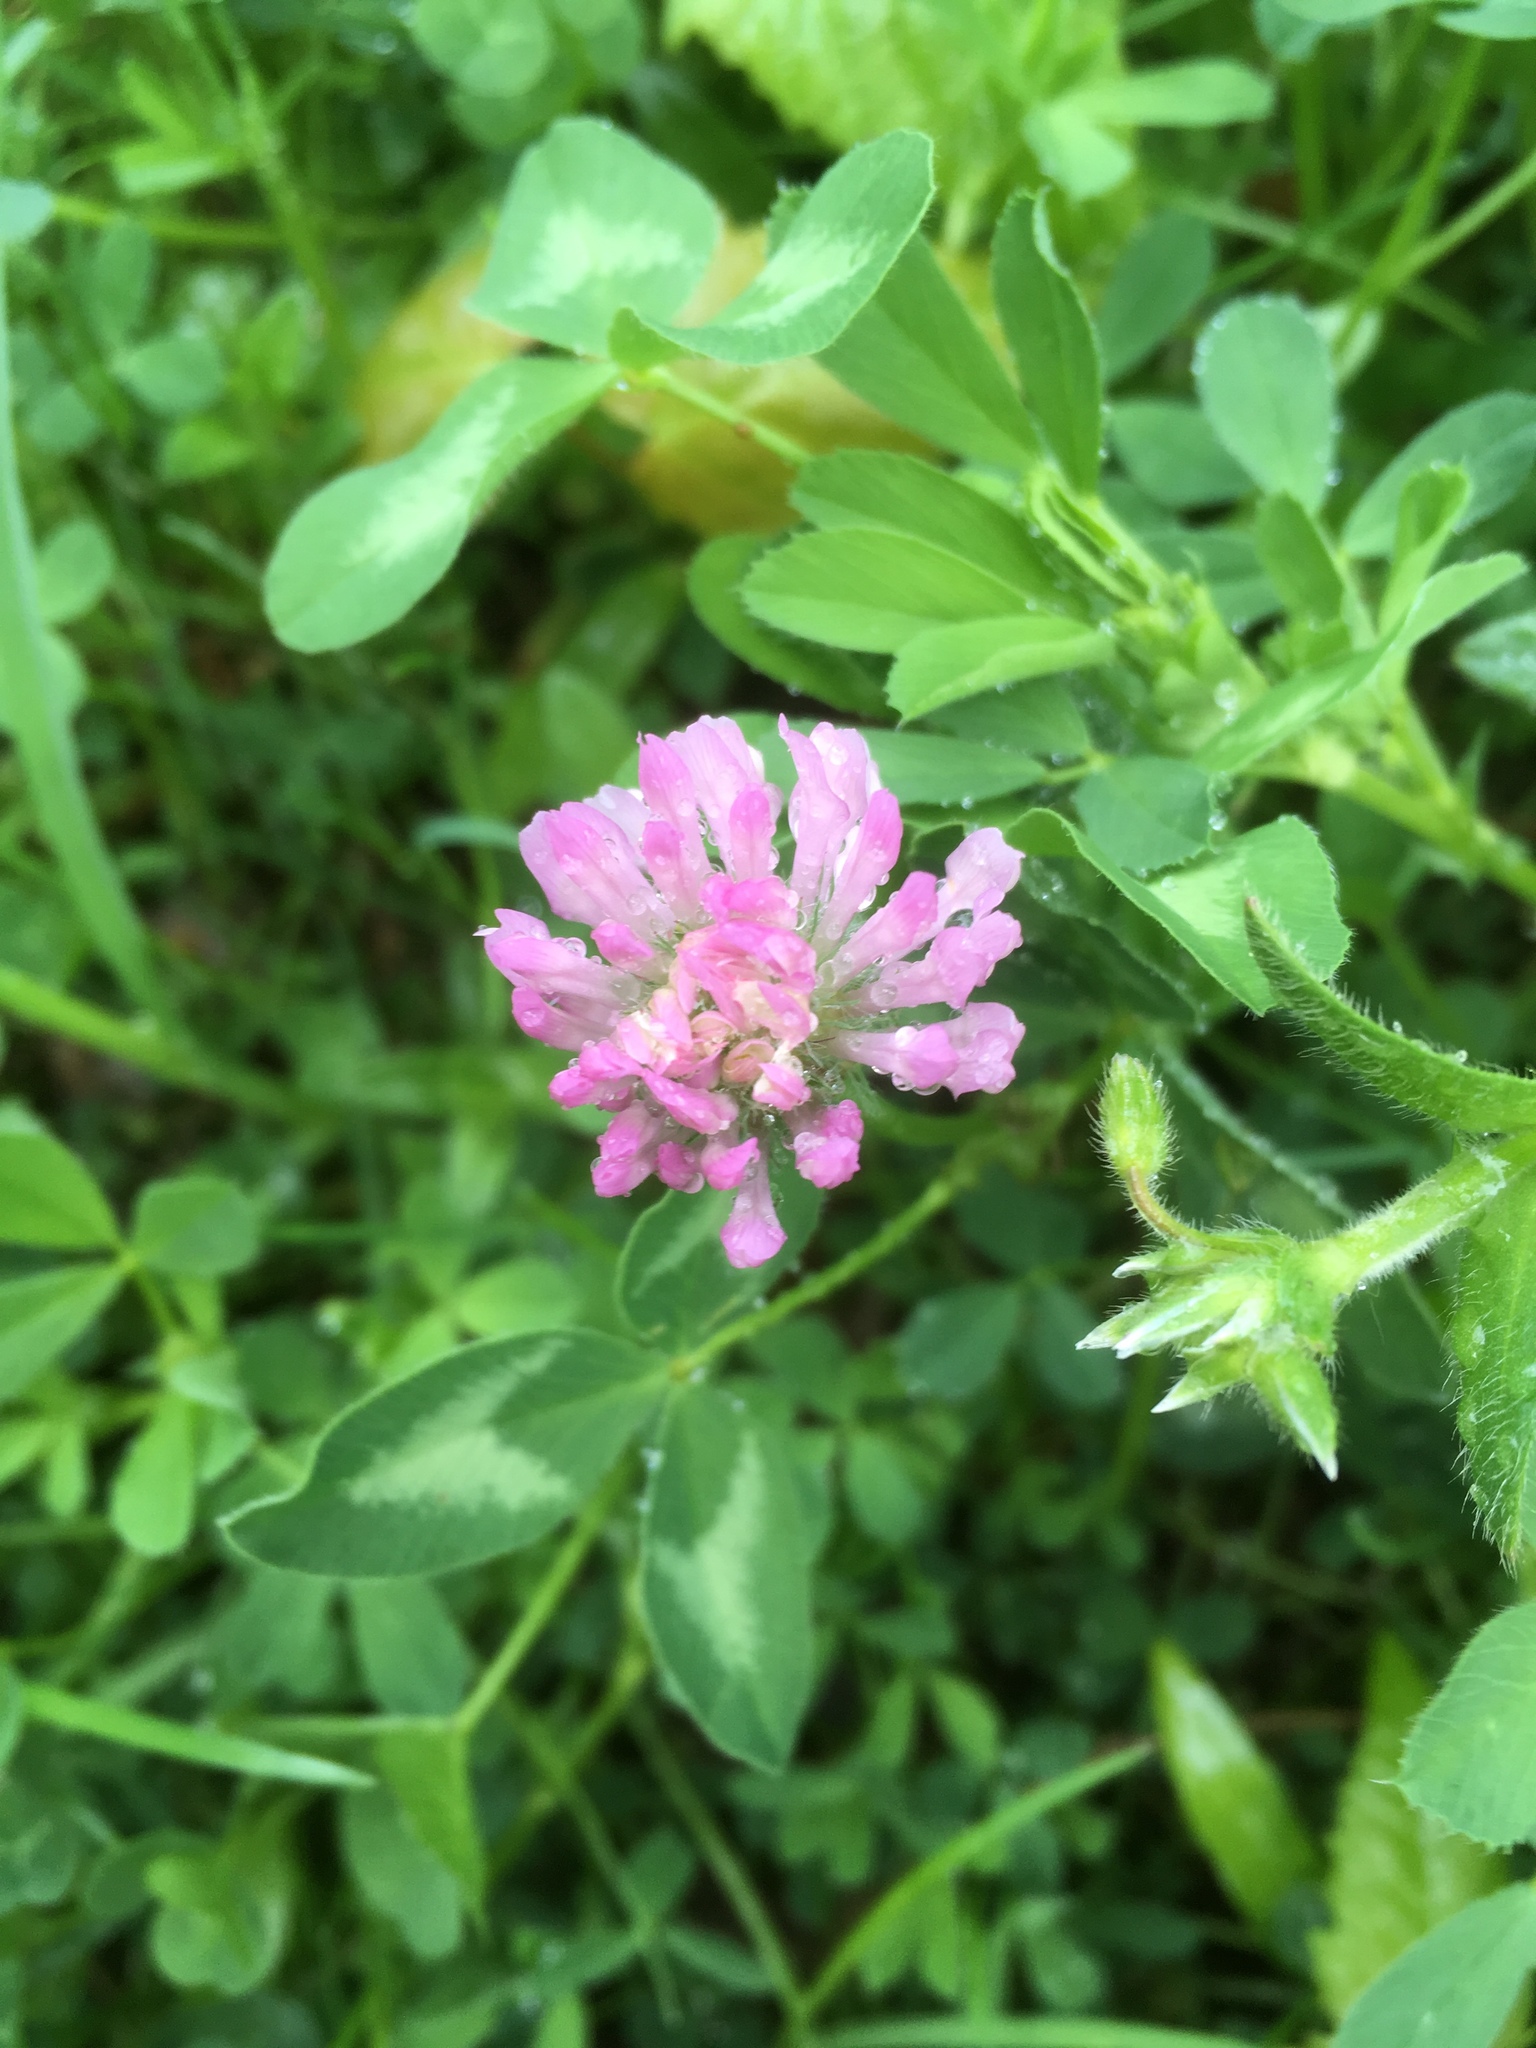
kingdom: Plantae
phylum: Tracheophyta
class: Magnoliopsida
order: Fabales
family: Fabaceae
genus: Trifolium
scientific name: Trifolium pratense
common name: Red clover
